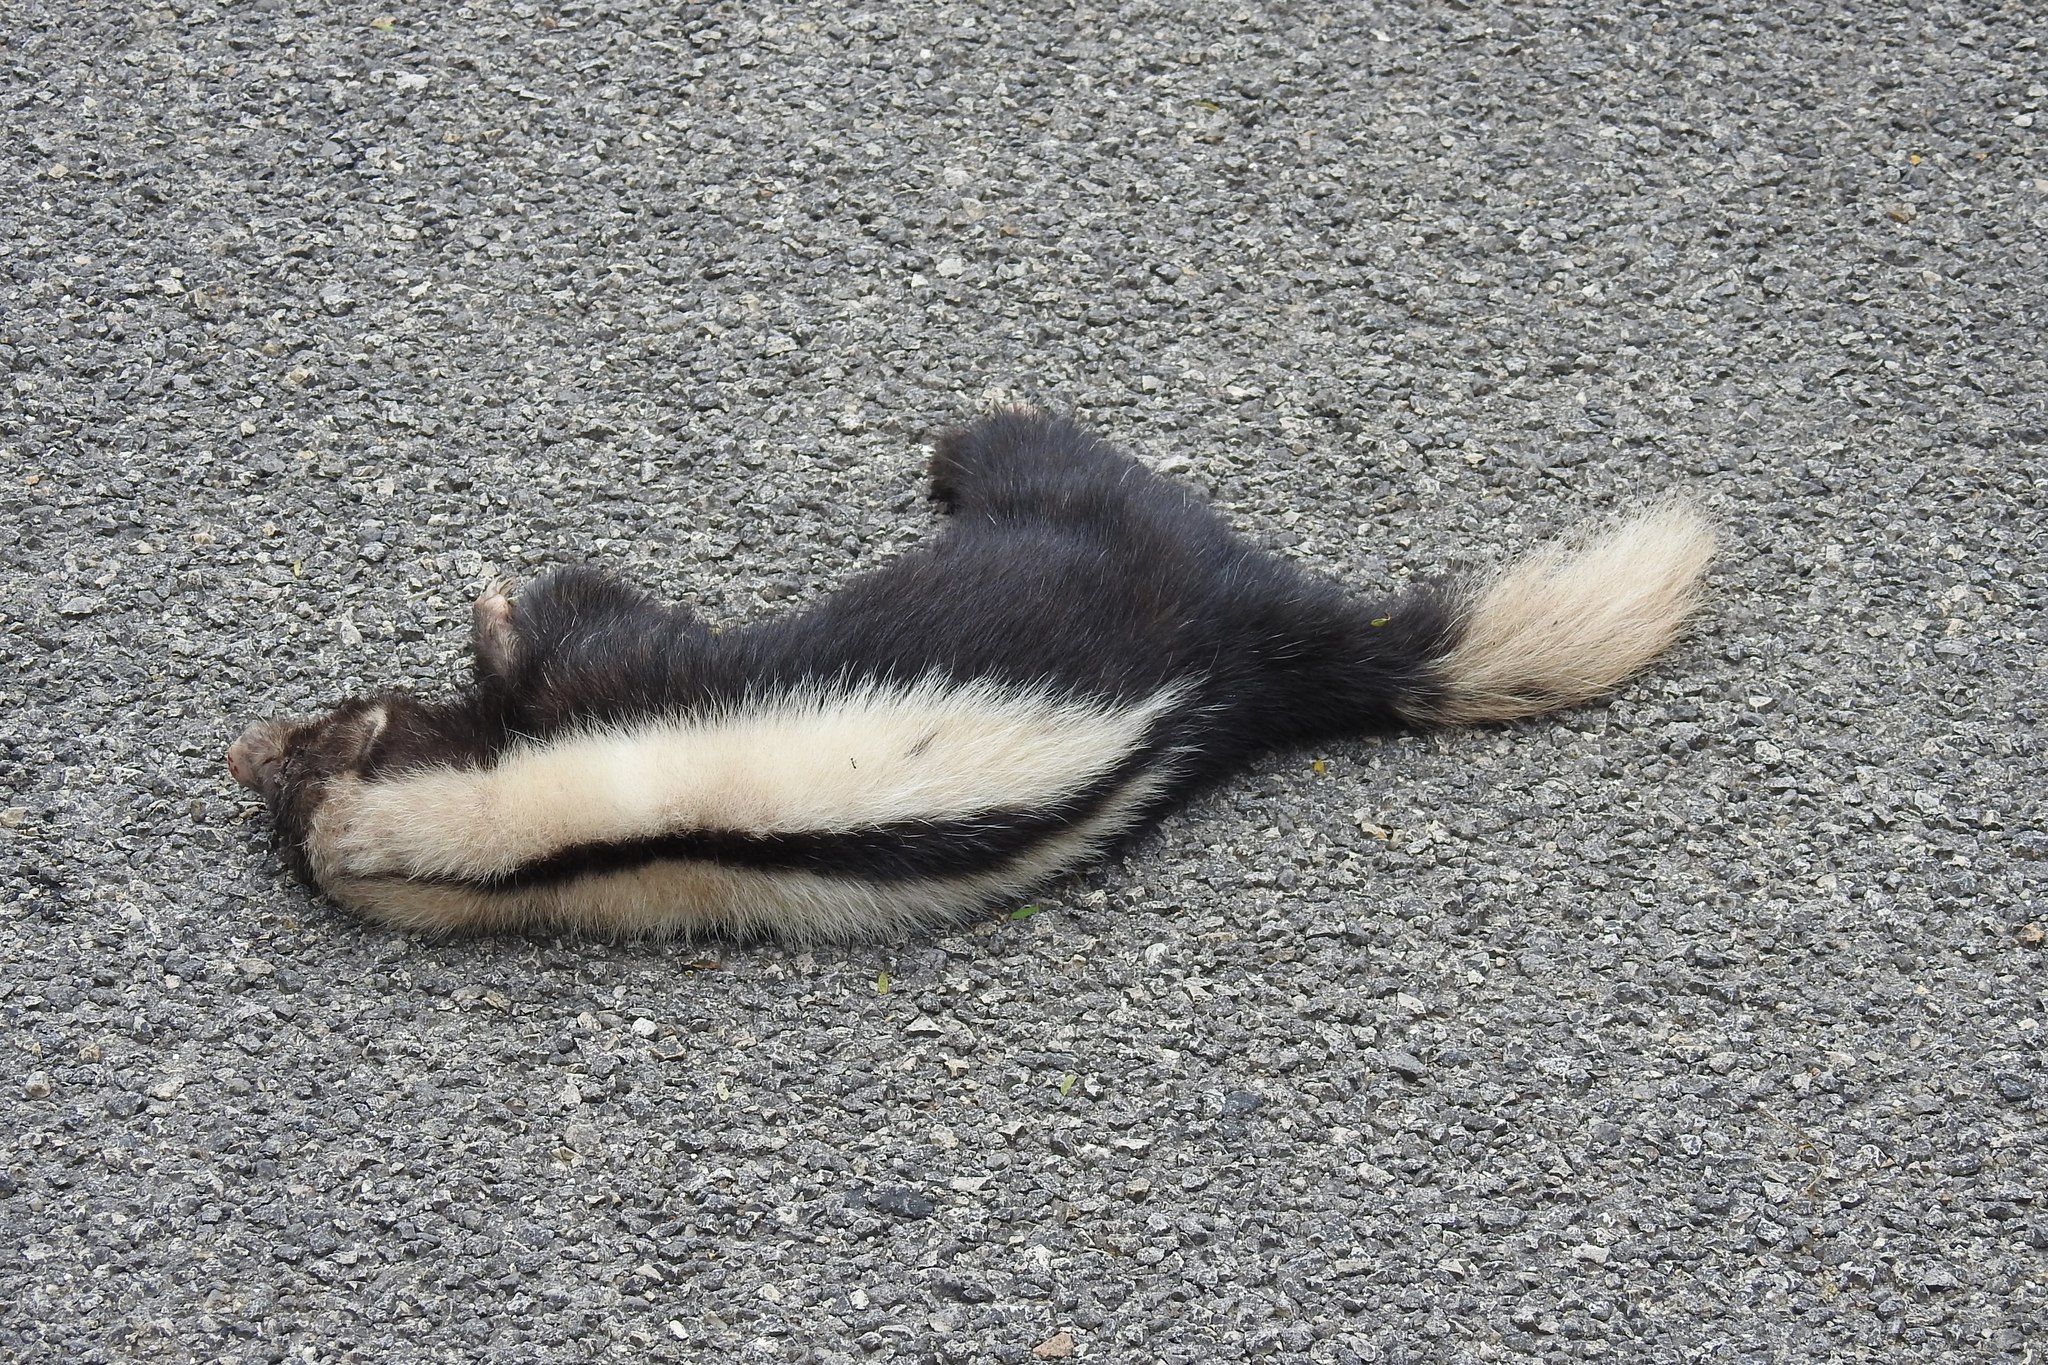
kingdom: Animalia
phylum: Chordata
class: Mammalia
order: Carnivora
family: Mephitidae
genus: Conepatus
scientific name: Conepatus semistriatus
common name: Striped hog-nosed skunk
